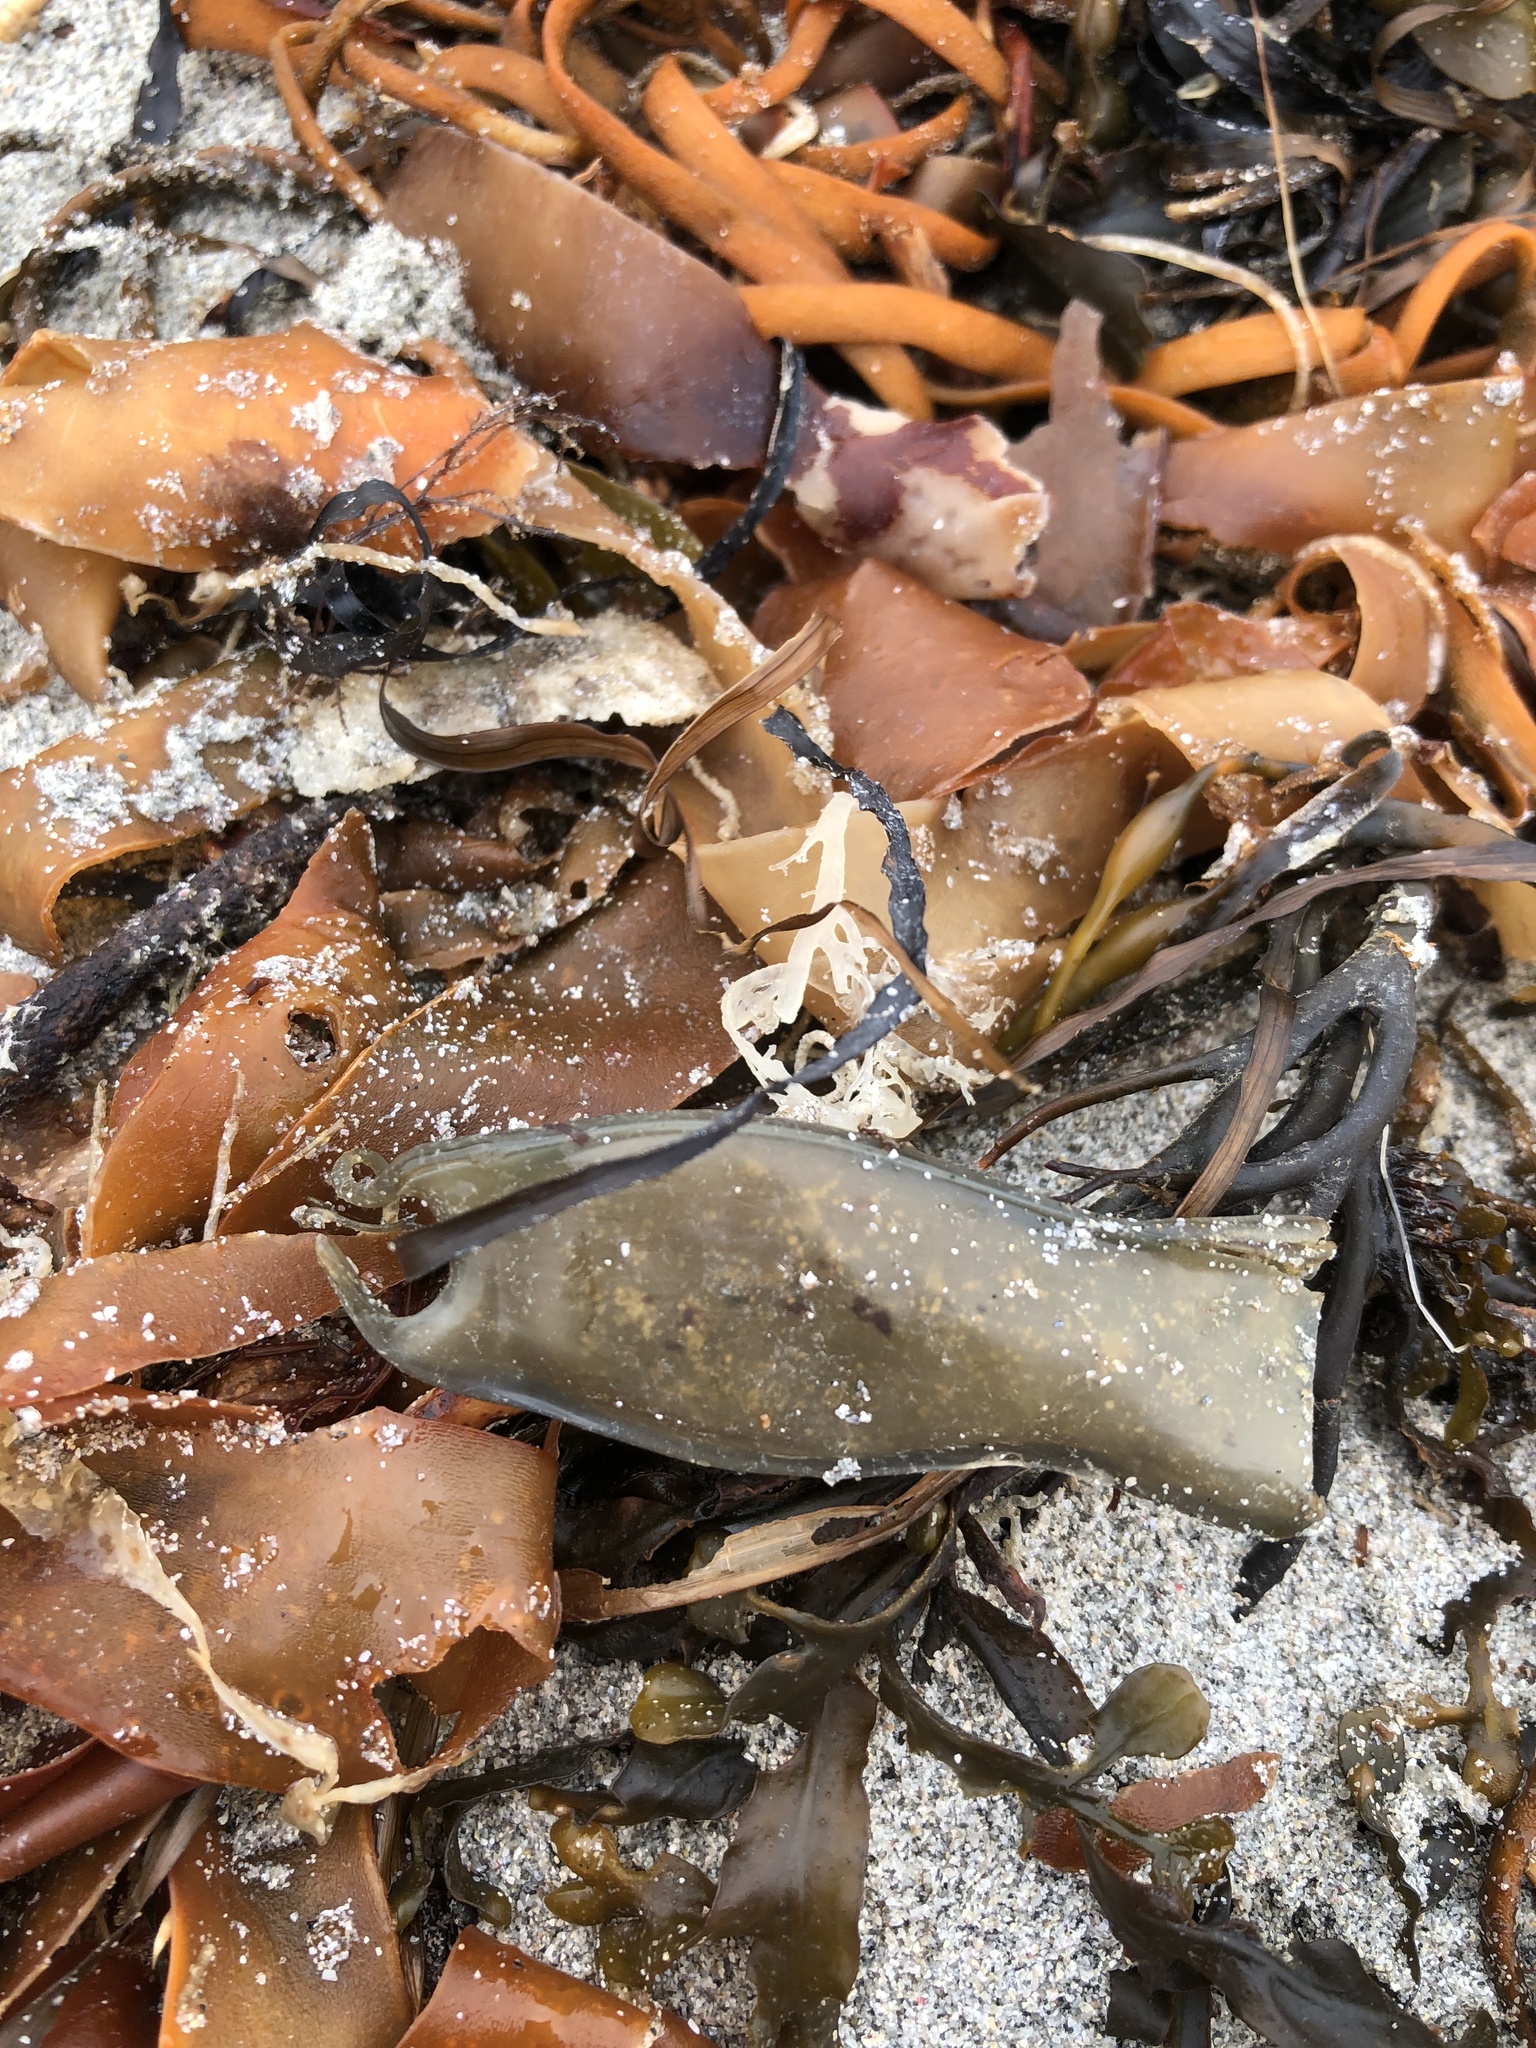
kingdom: Animalia
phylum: Chordata
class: Elasmobranchii
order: Carcharhiniformes
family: Scyliorhinidae
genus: Scyliorhinus
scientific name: Scyliorhinus canicula
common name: Lesser spotted dogfish
